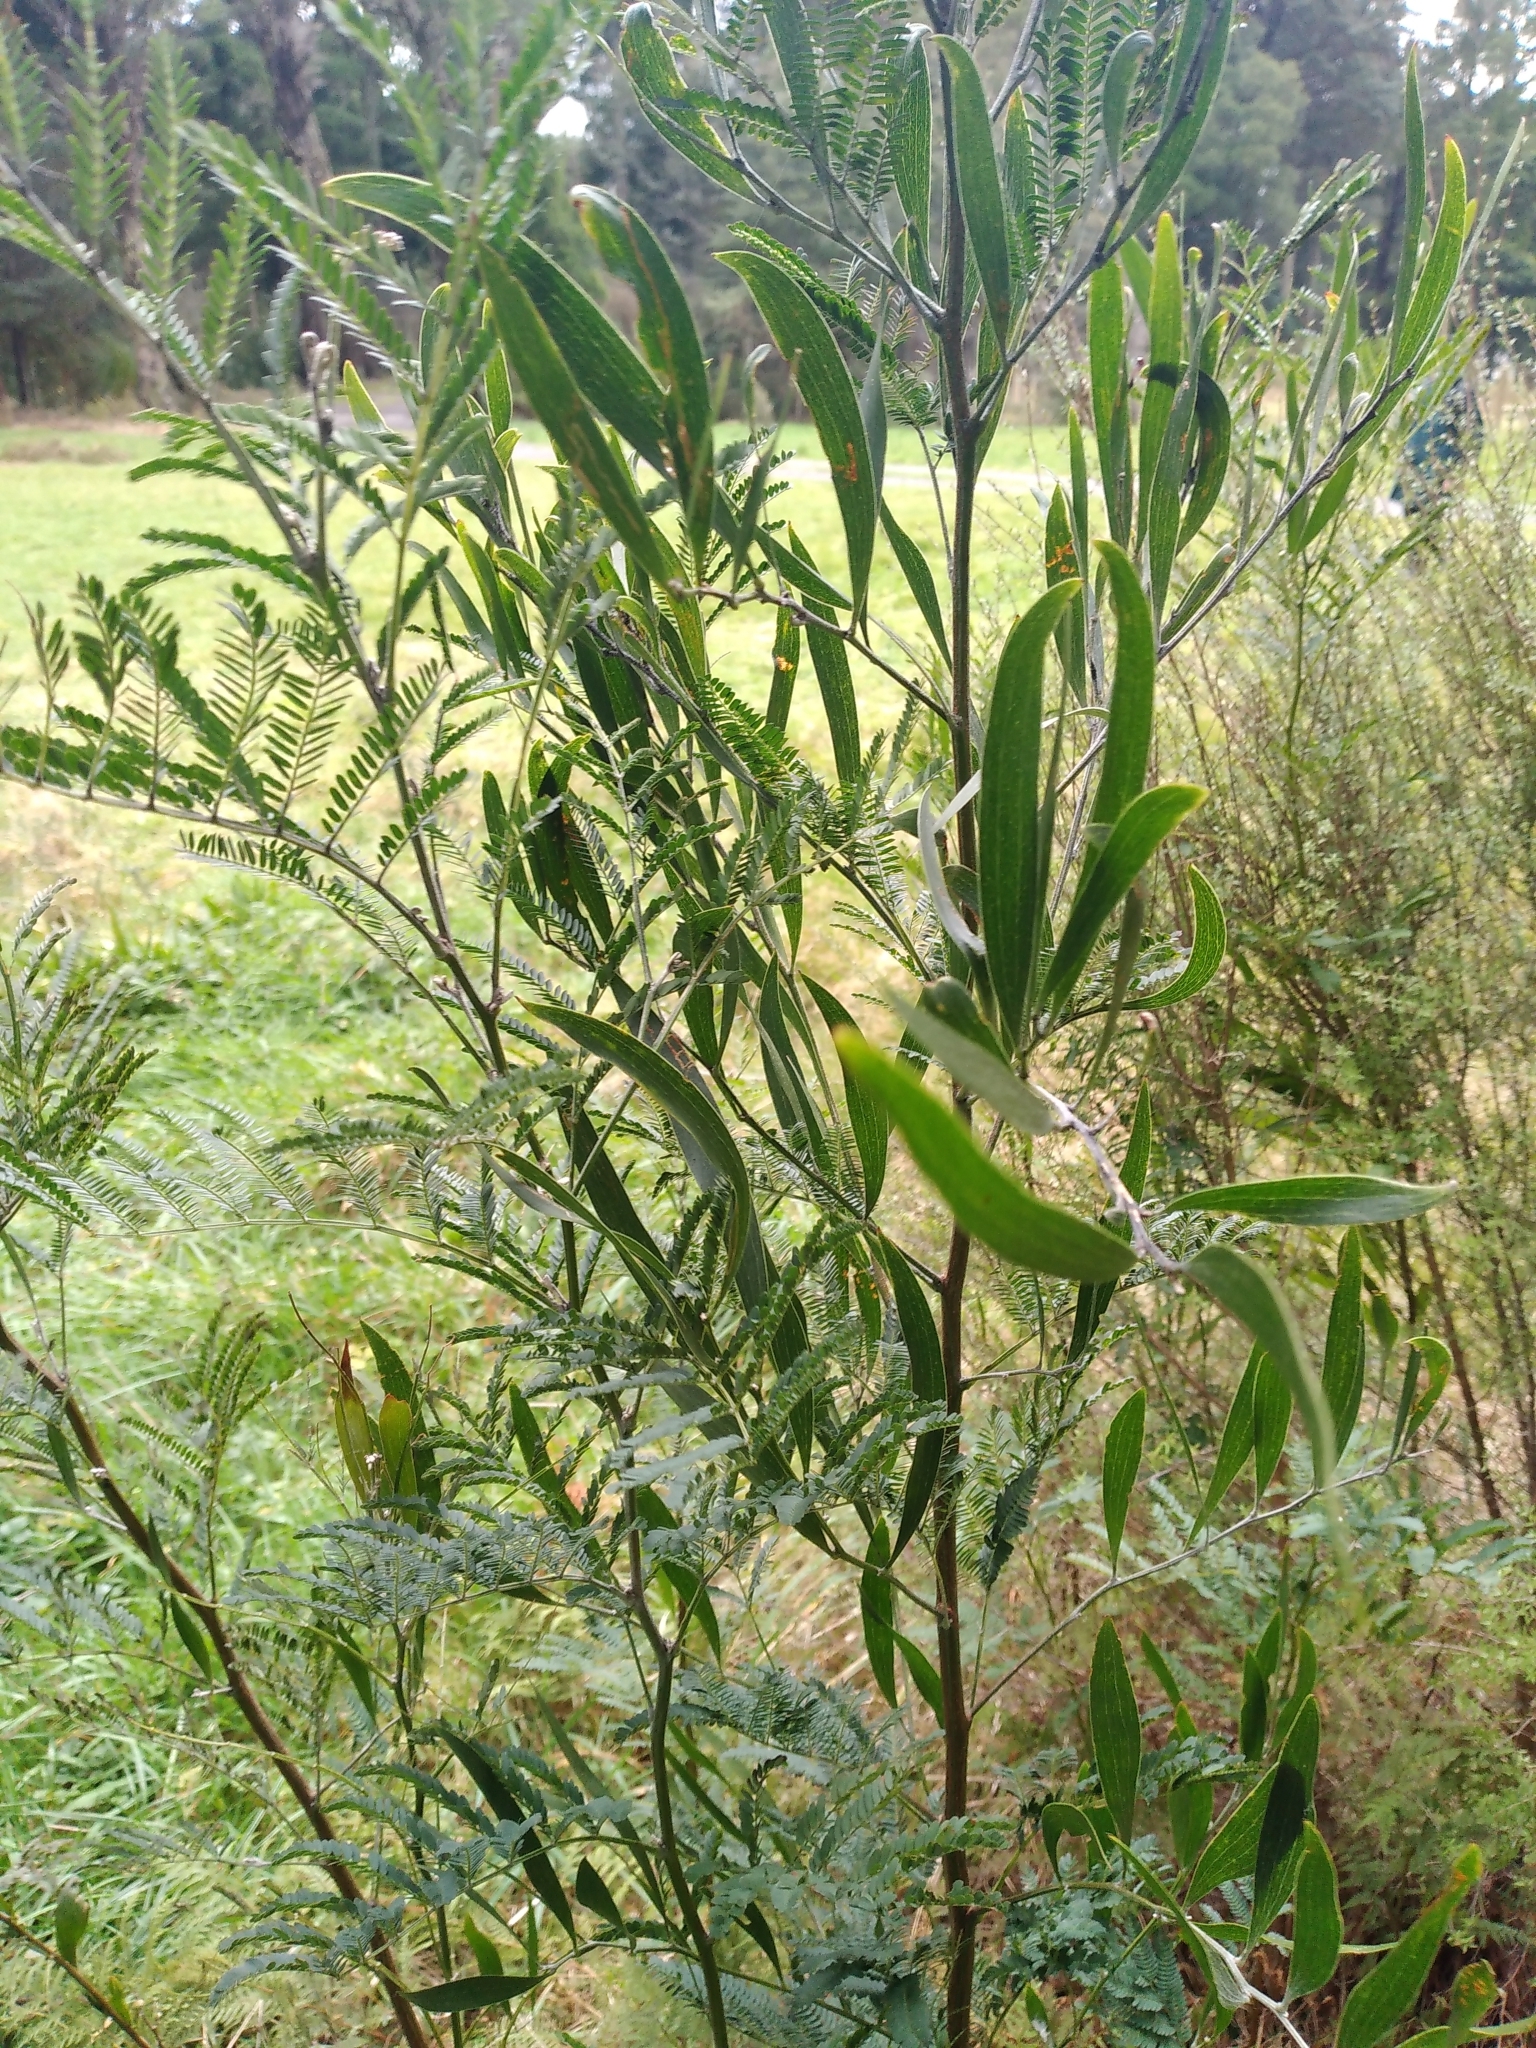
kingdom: Plantae
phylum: Tracheophyta
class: Magnoliopsida
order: Fabales
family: Fabaceae
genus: Acacia
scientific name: Acacia melanoxylon
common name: Blackwood
